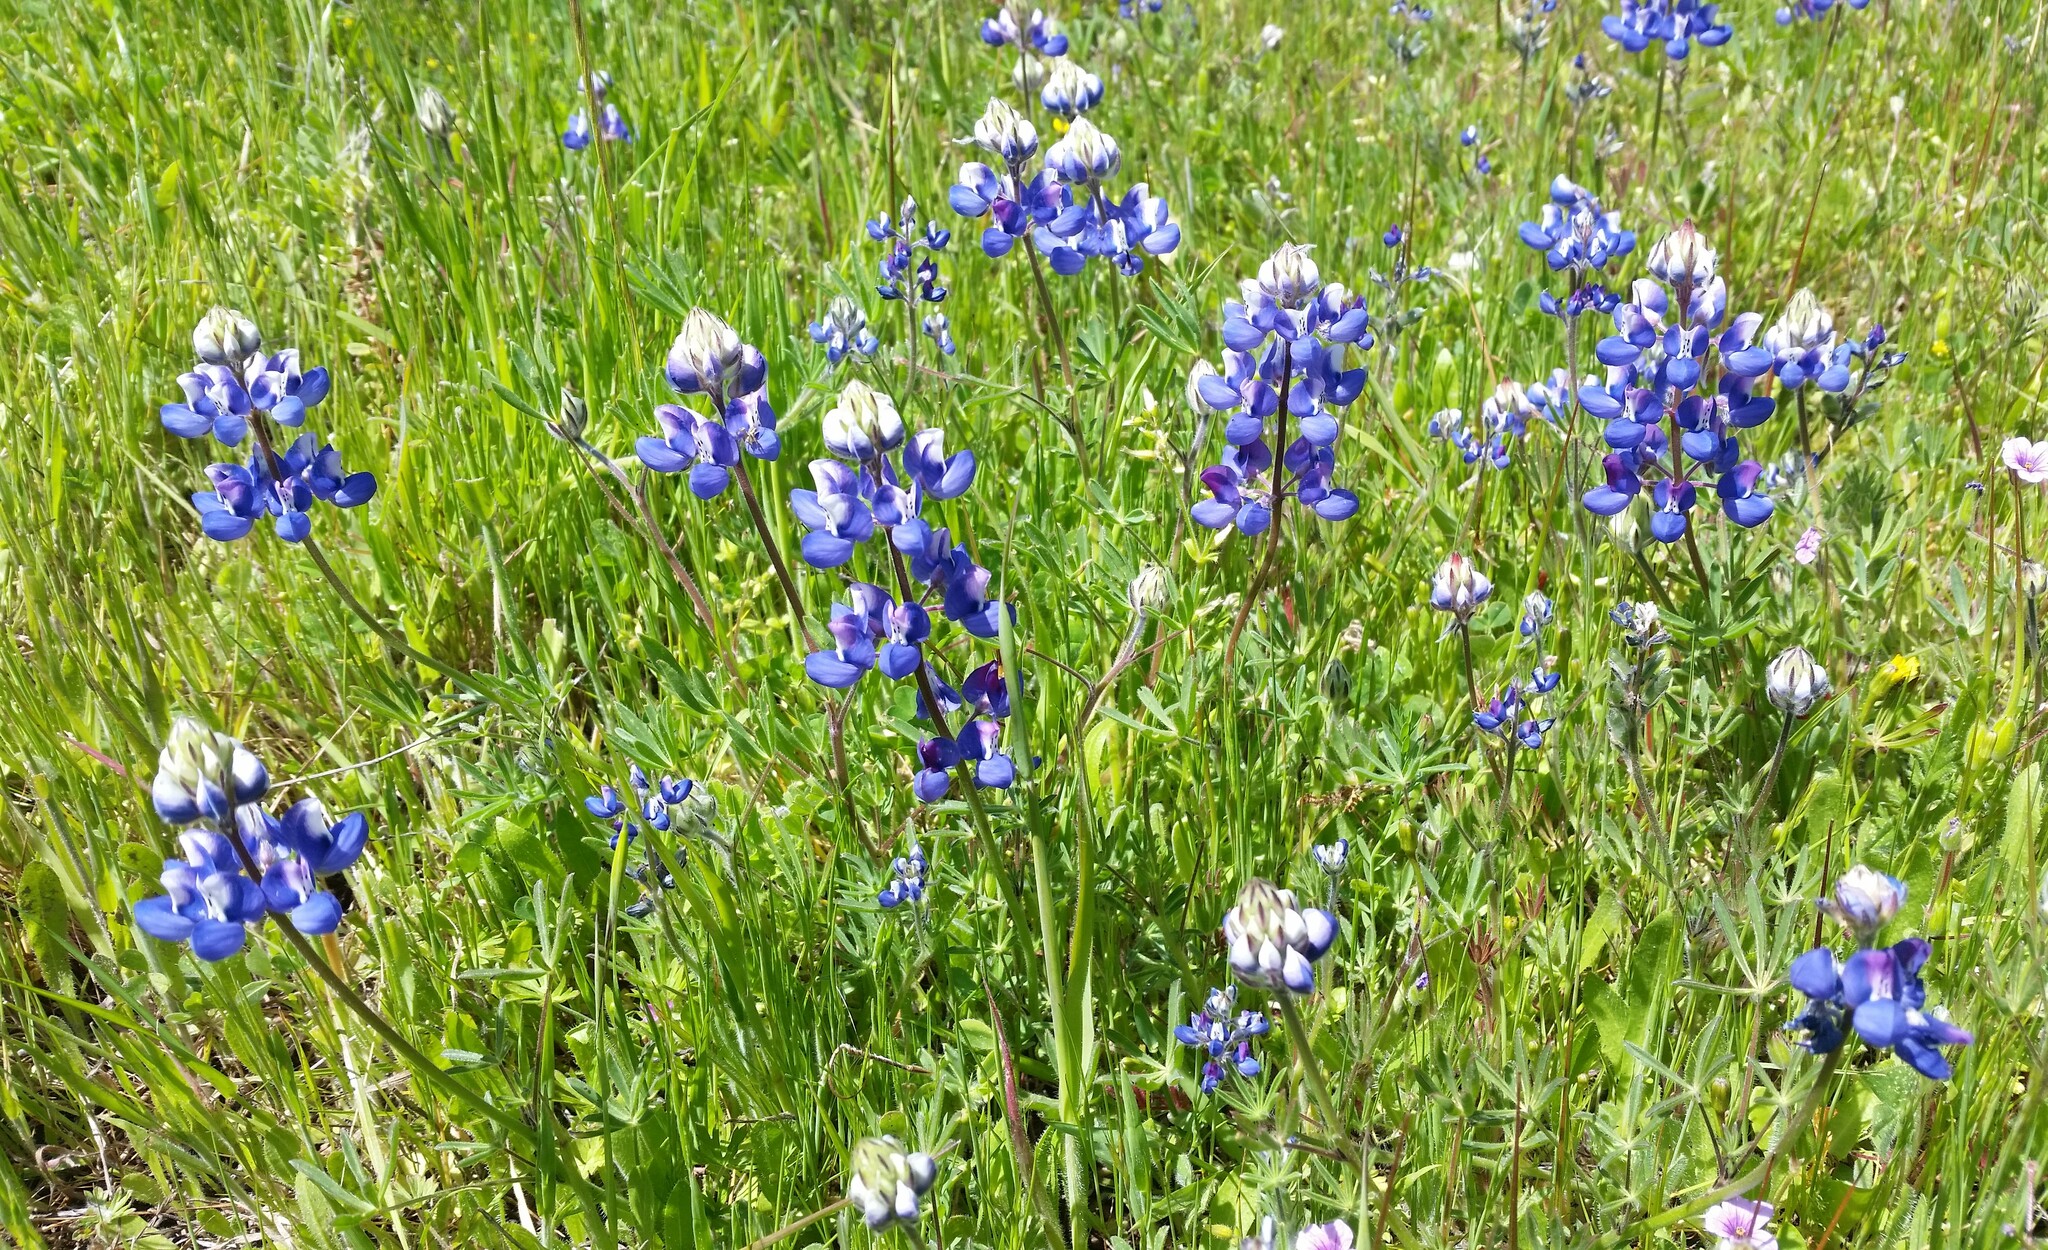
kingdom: Plantae
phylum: Tracheophyta
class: Magnoliopsida
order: Fabales
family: Fabaceae
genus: Lupinus
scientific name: Lupinus nanus
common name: Orean blue lupin
